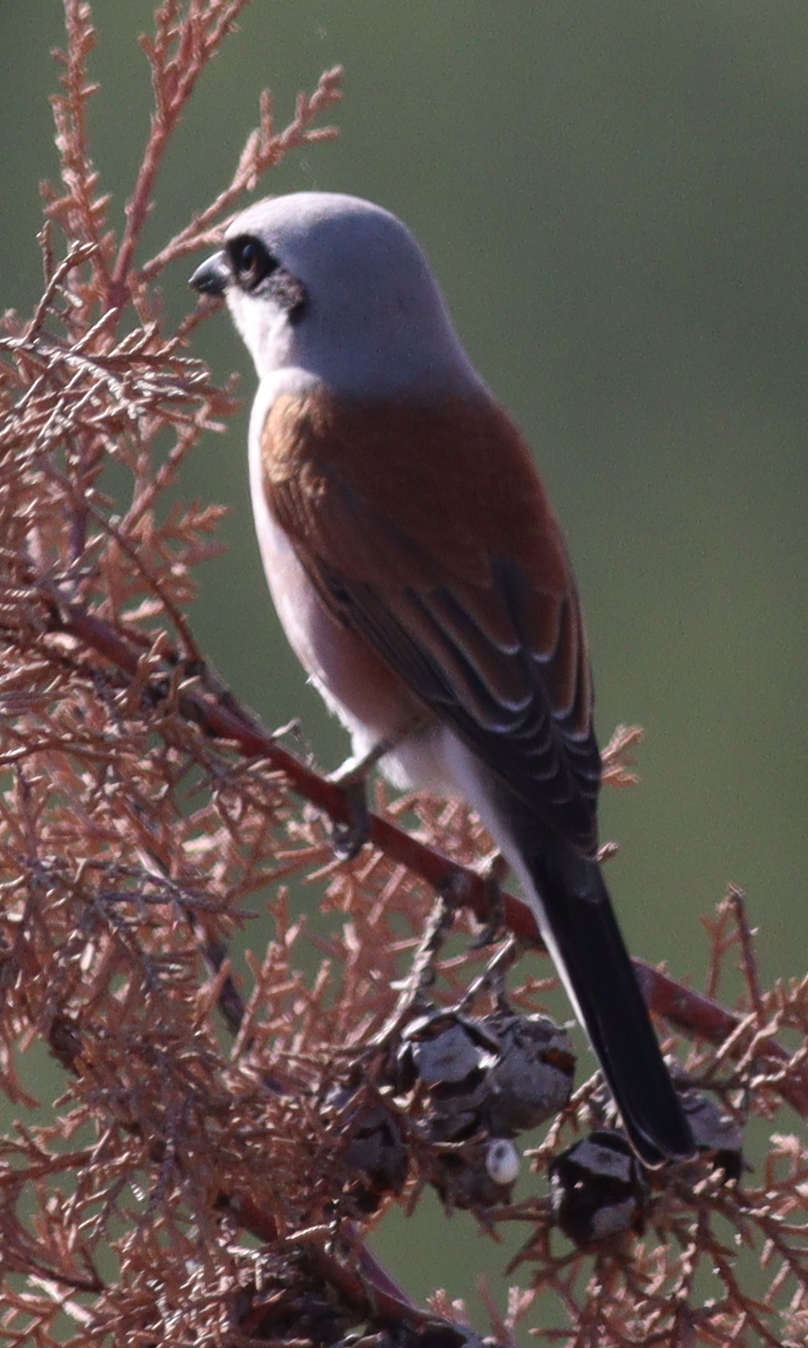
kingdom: Animalia
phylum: Chordata
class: Aves
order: Passeriformes
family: Laniidae
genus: Lanius
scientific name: Lanius collurio
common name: Red-backed shrike
